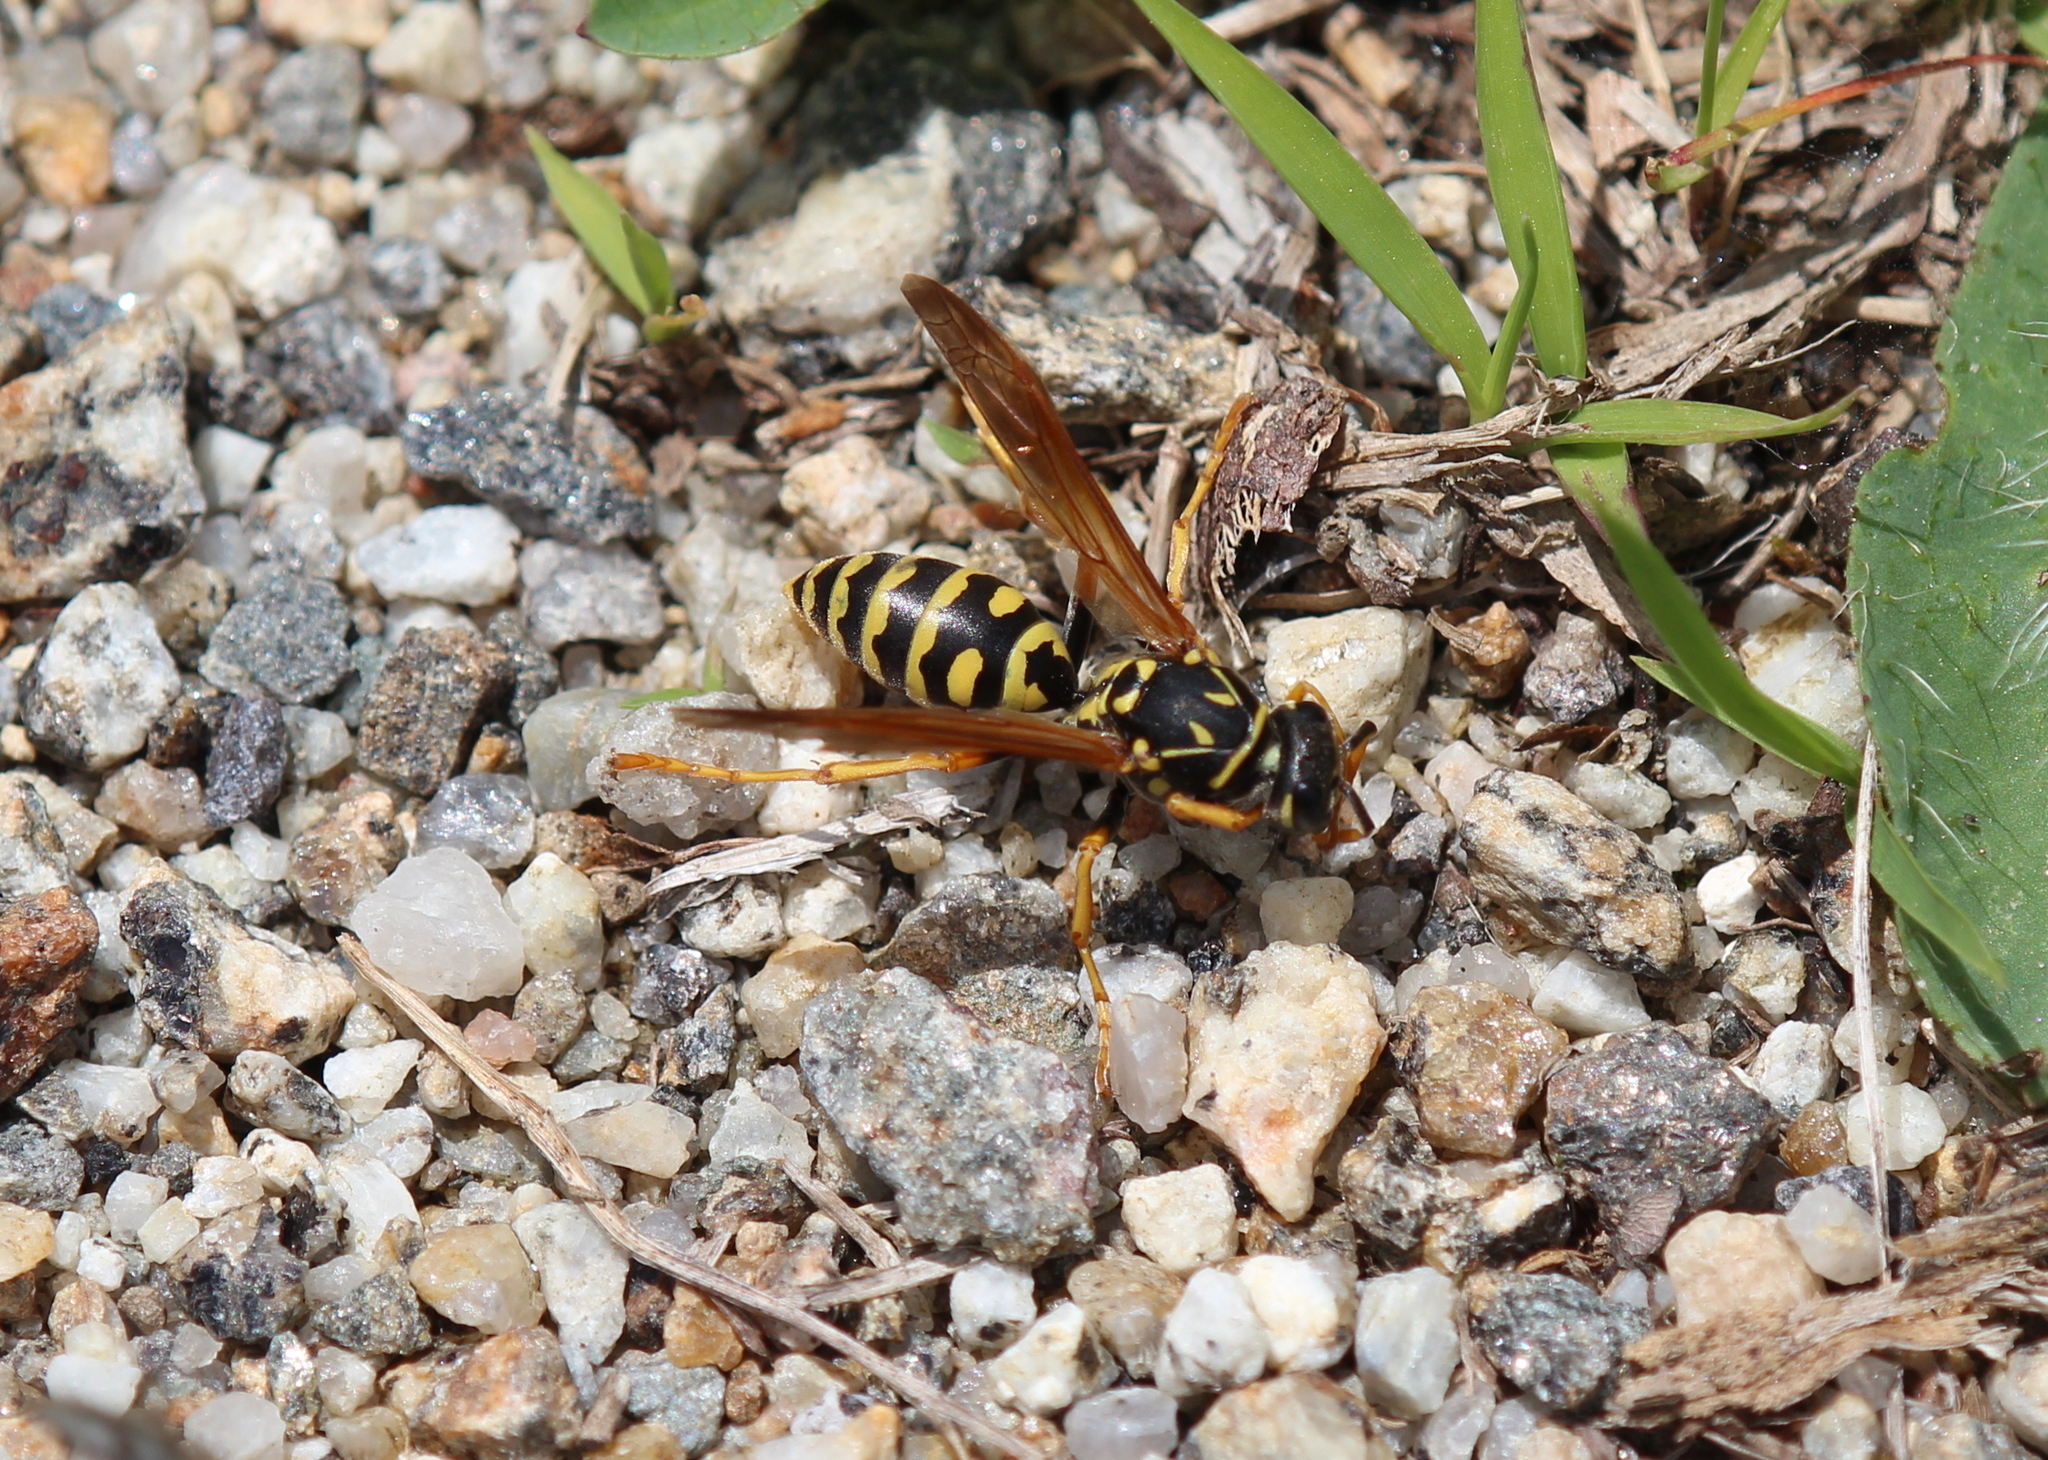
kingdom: Animalia
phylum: Arthropoda
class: Insecta
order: Hymenoptera
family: Eumenidae
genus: Polistes
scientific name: Polistes dominula
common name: Paper wasp
